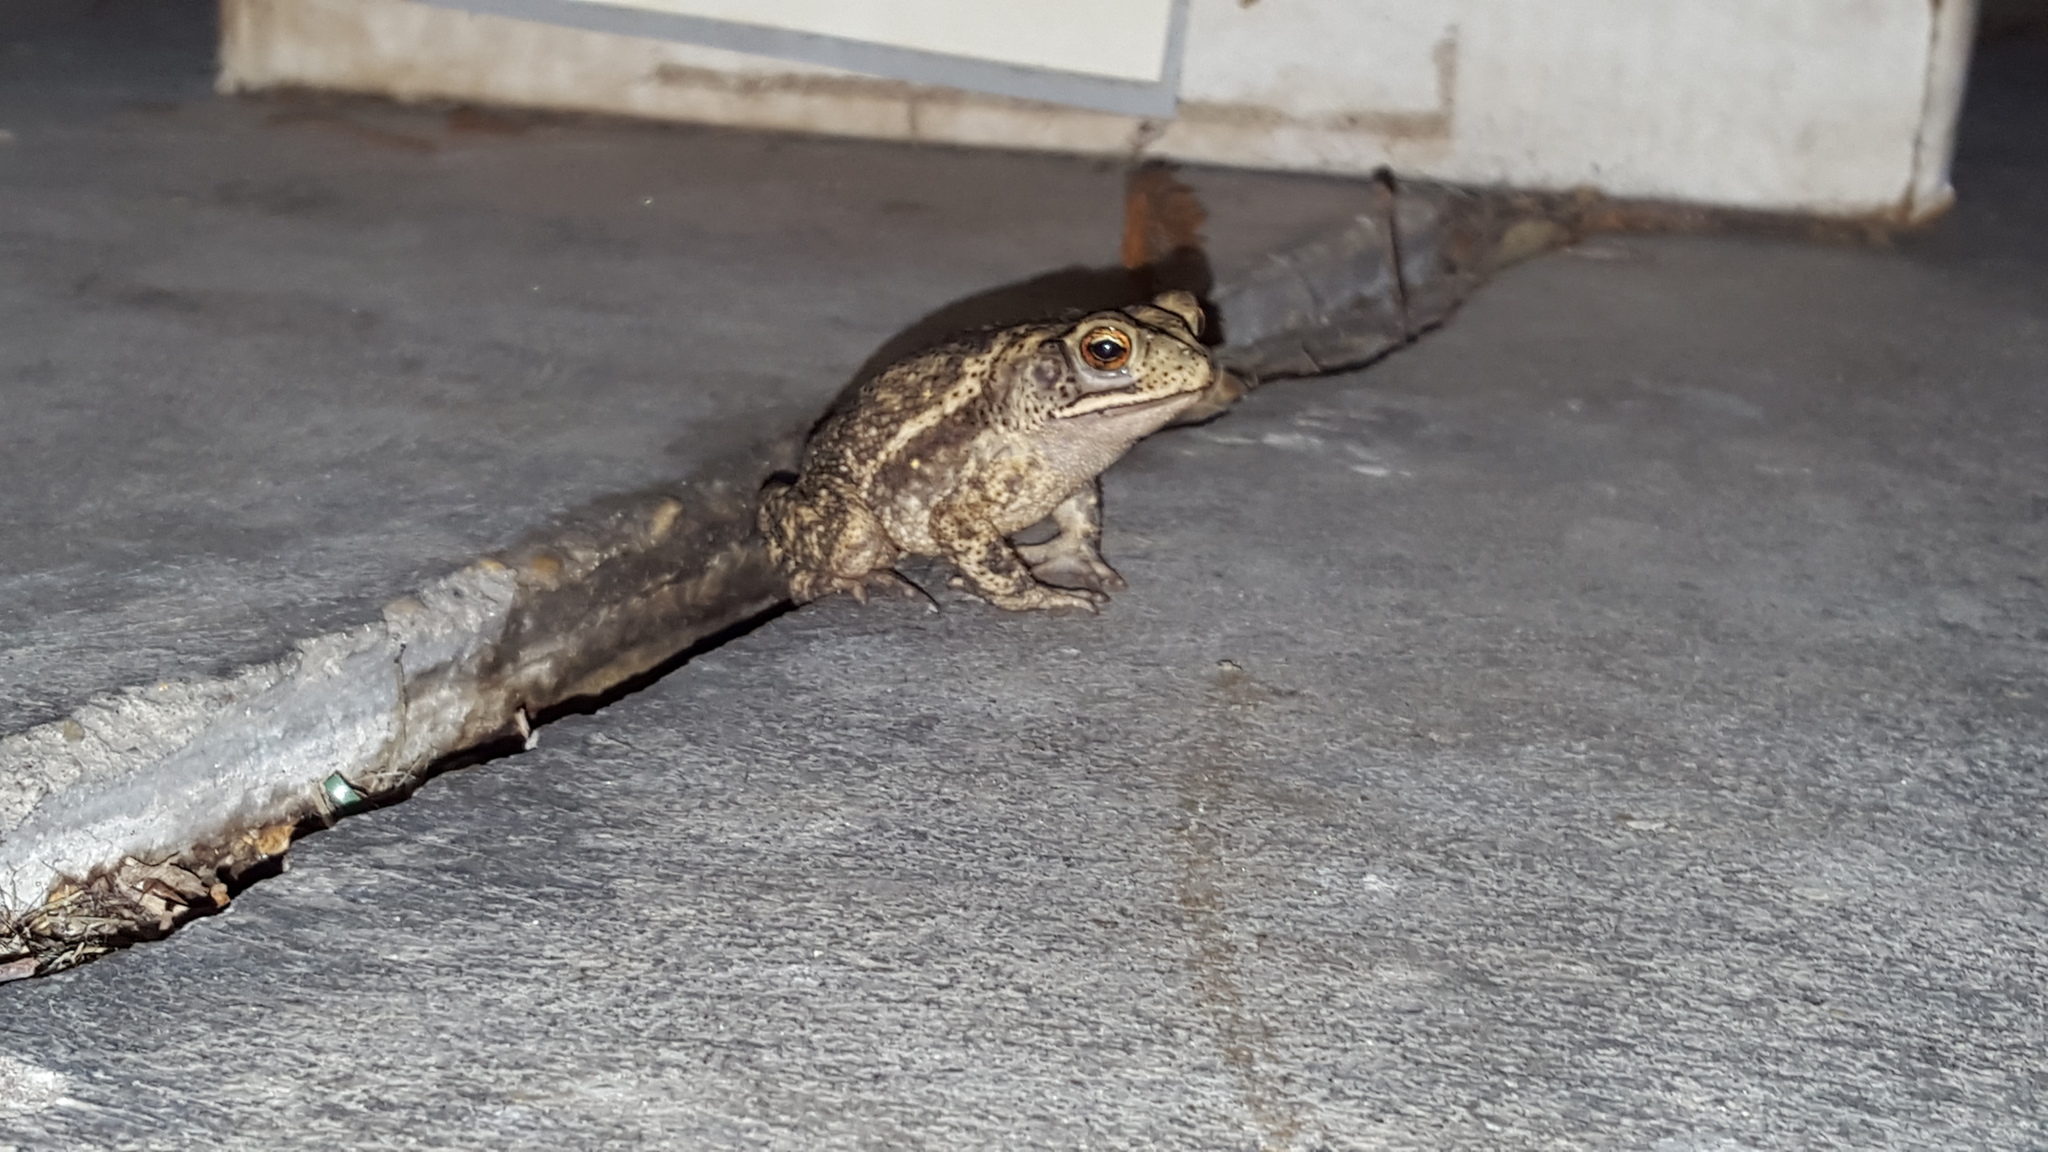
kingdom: Animalia
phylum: Chordata
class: Amphibia
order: Anura
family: Bufonidae
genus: Incilius
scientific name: Incilius nebulifer
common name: Gulf coast toad
